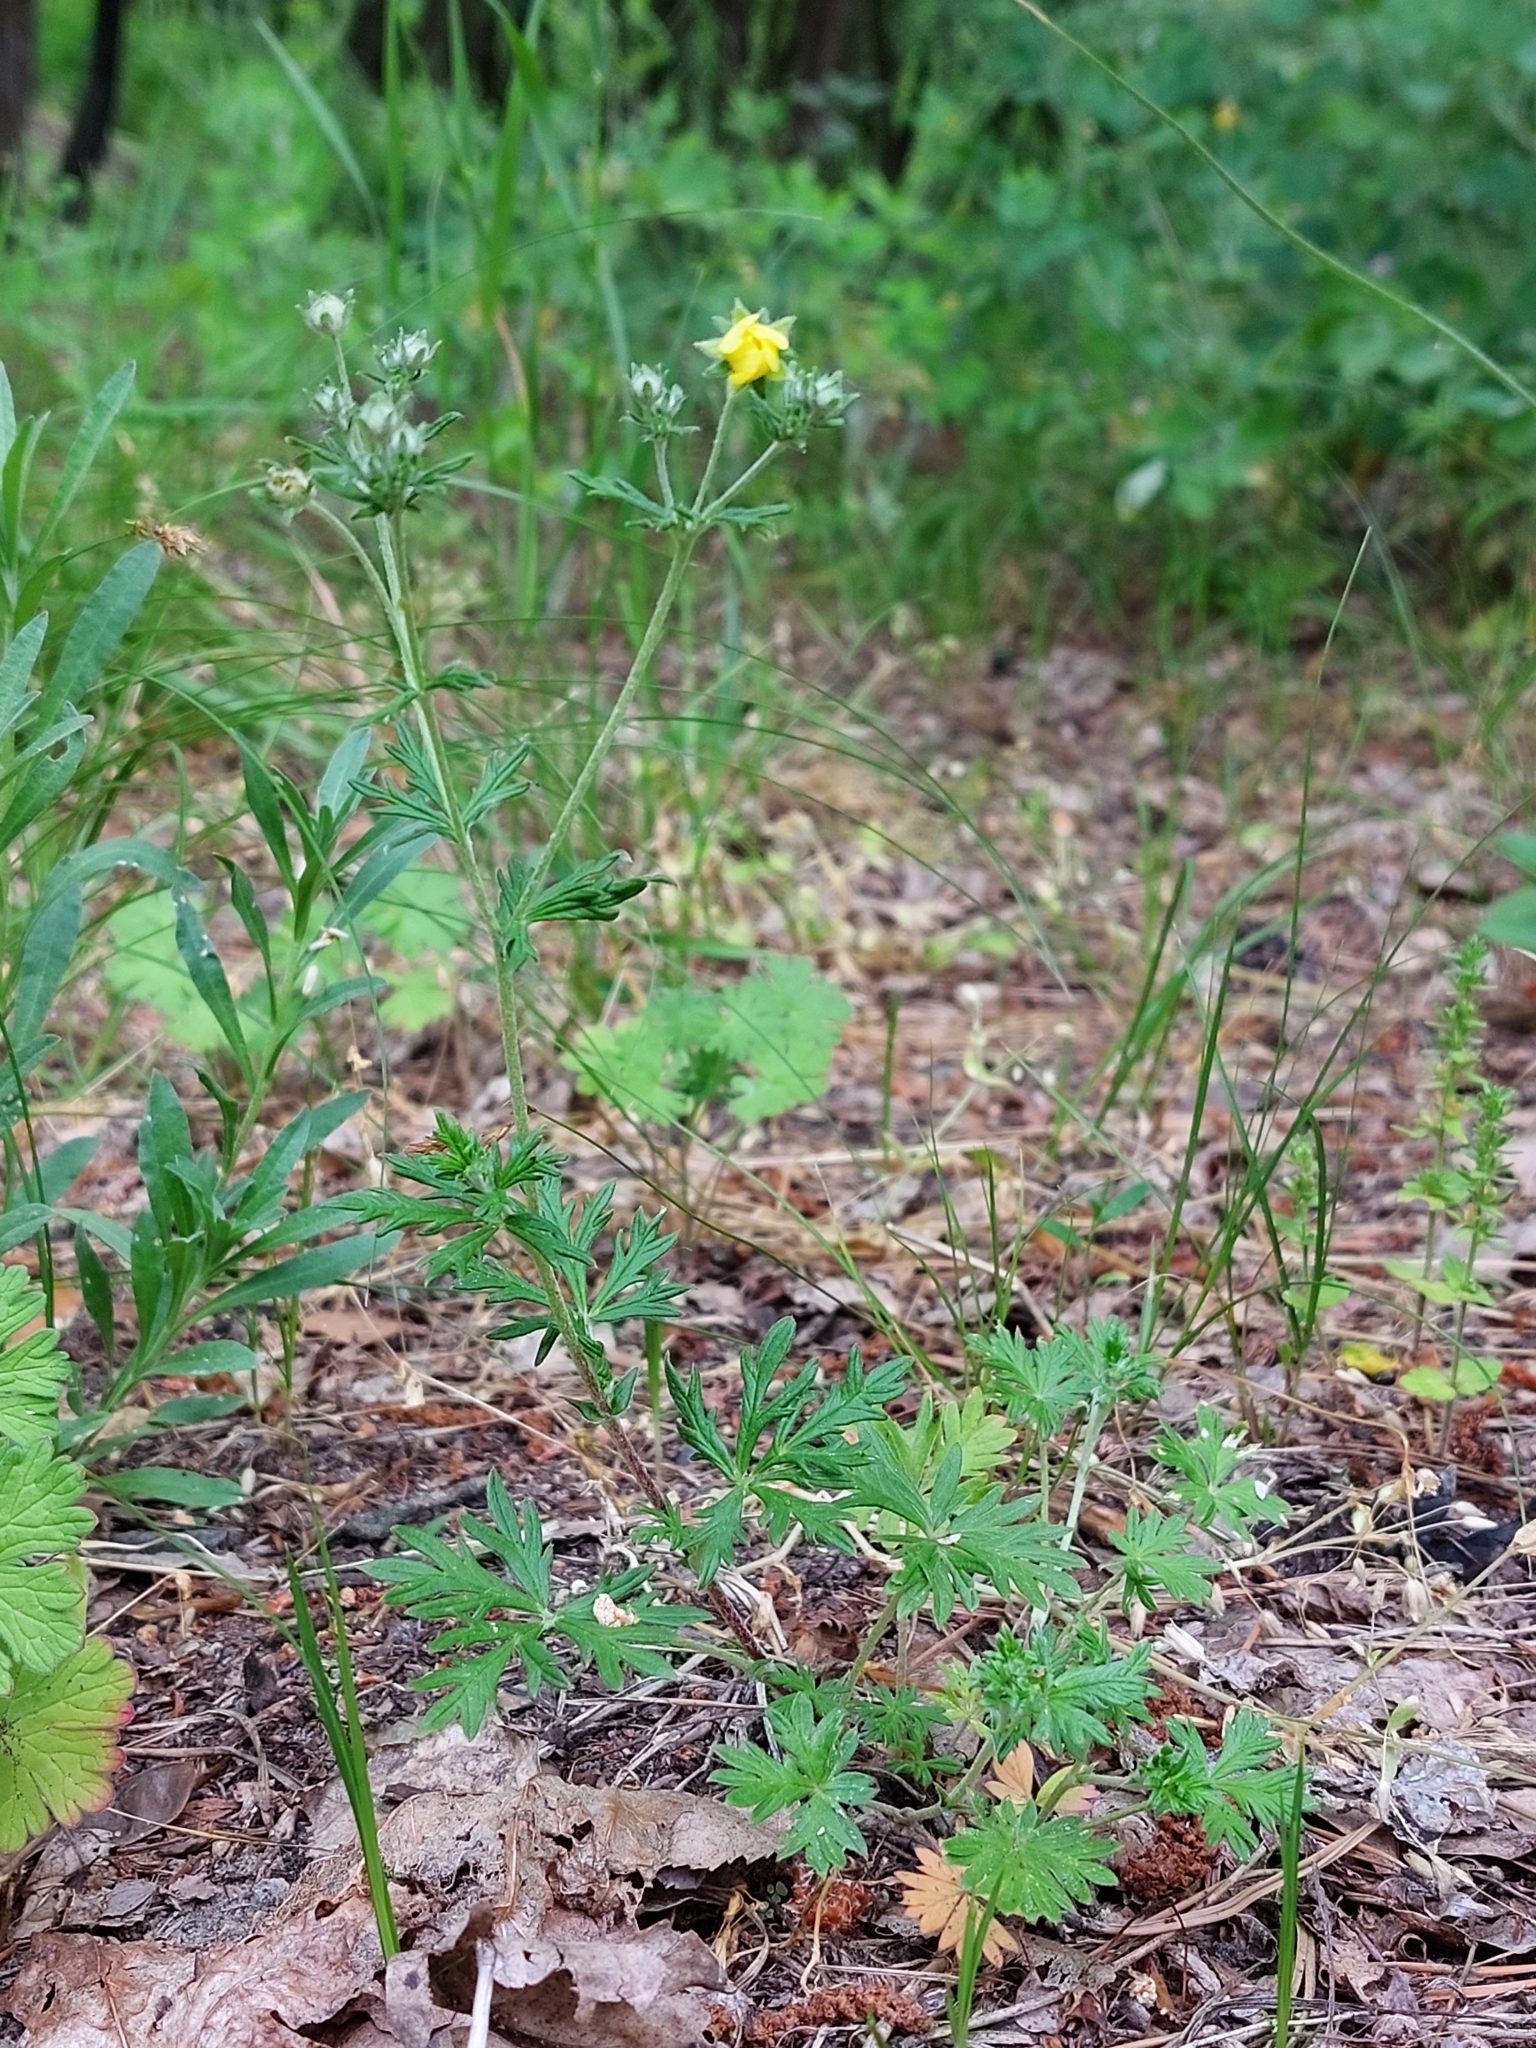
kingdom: Plantae
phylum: Tracheophyta
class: Magnoliopsida
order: Rosales
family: Rosaceae
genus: Potentilla
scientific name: Potentilla argentea
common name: Hoary cinquefoil
